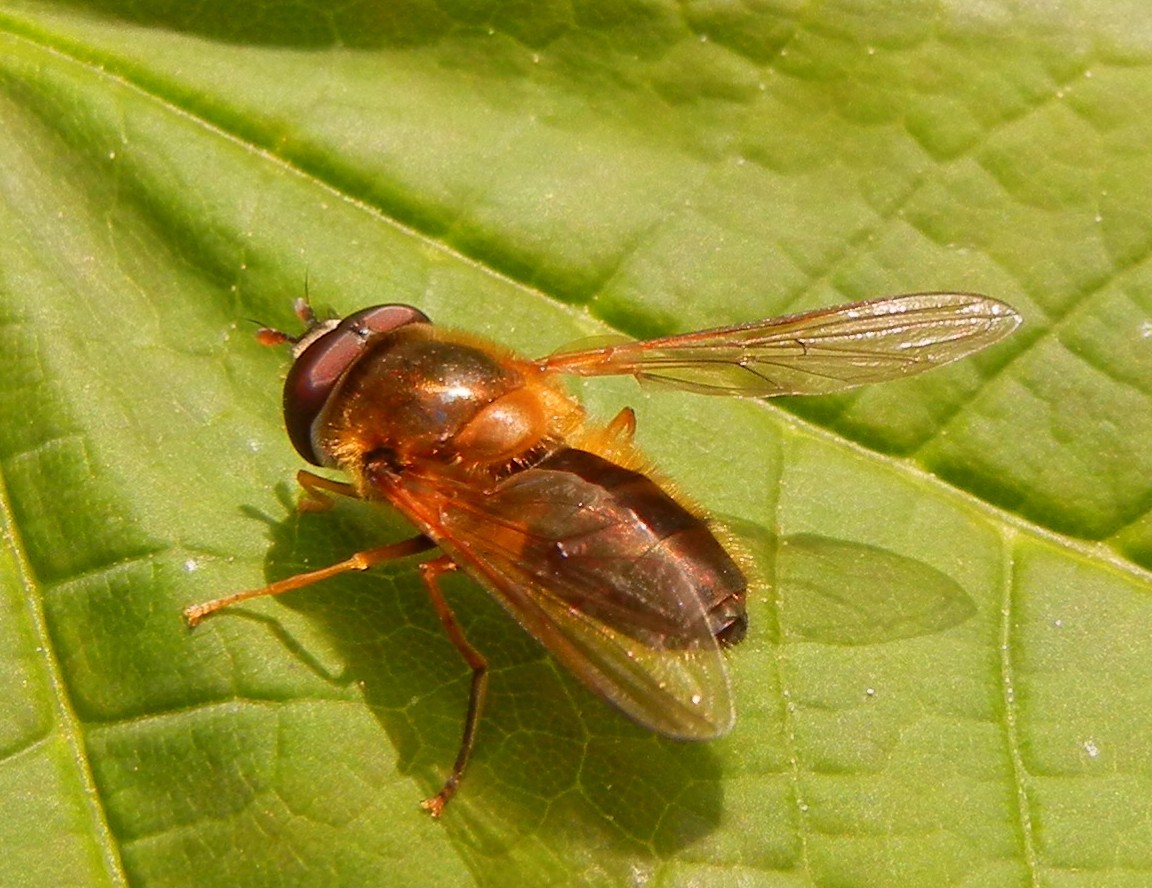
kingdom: Animalia
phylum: Arthropoda
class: Insecta
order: Diptera
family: Syrphidae
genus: Epistrophe
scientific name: Epistrophe eligans
